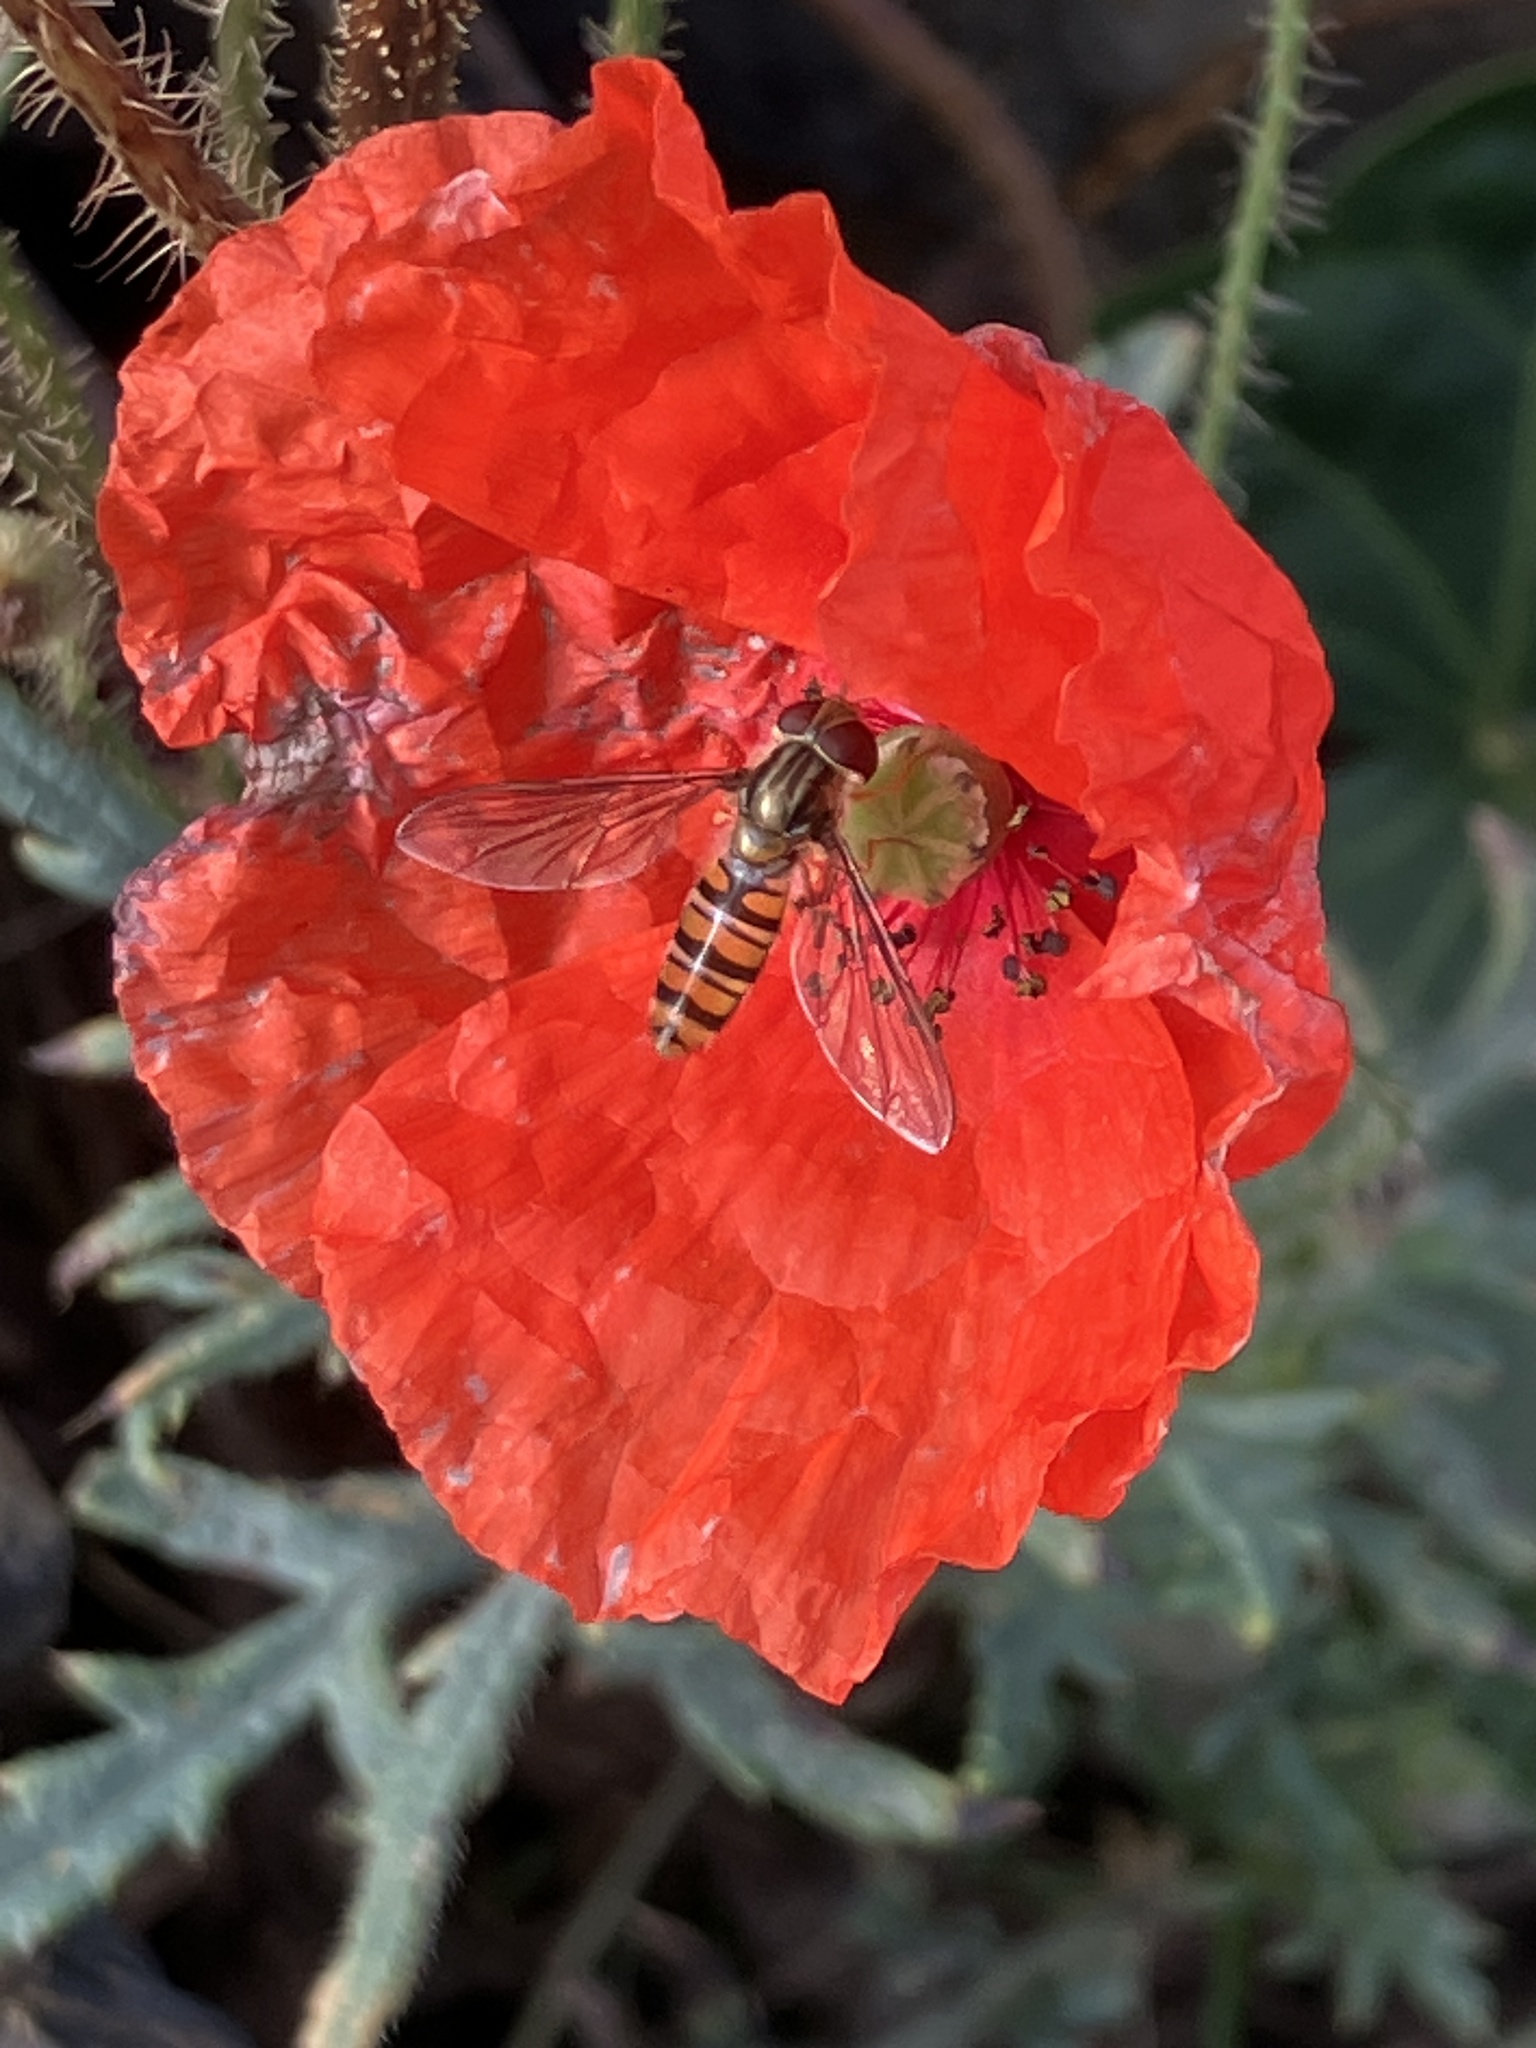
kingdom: Animalia
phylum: Arthropoda
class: Insecta
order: Diptera
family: Syrphidae
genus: Episyrphus
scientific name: Episyrphus balteatus
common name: Marmalade hoverfly
